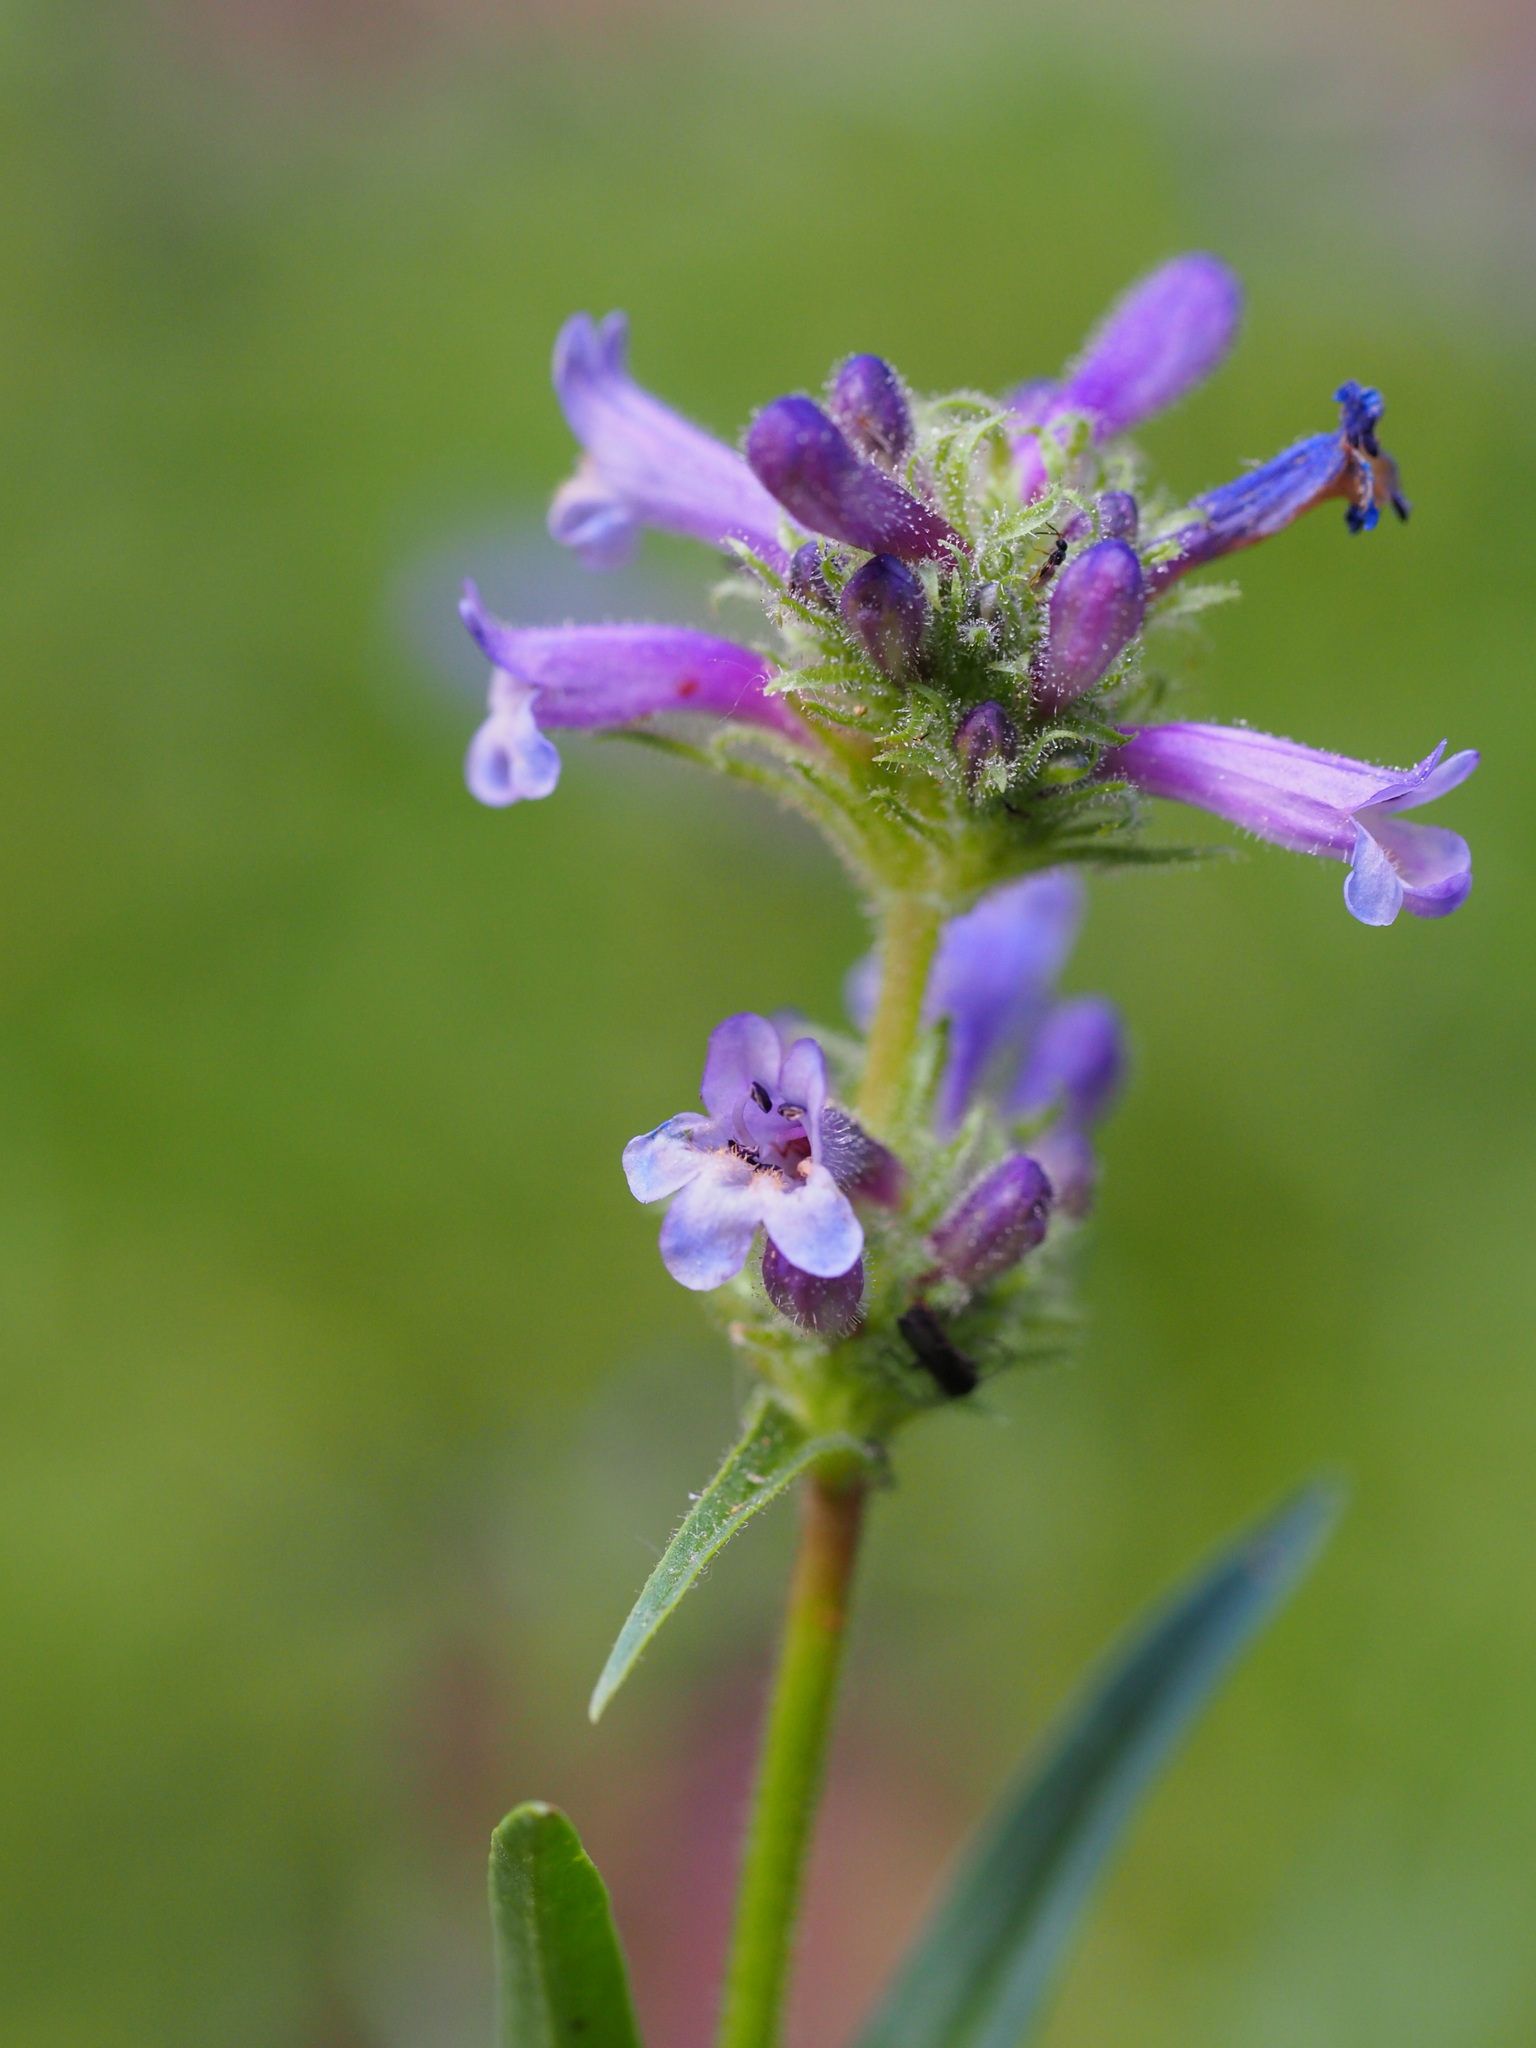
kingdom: Plantae
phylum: Tracheophyta
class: Magnoliopsida
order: Lamiales
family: Plantaginaceae
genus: Penstemon
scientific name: Penstemon heterodoxus
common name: Sierran penstemon
